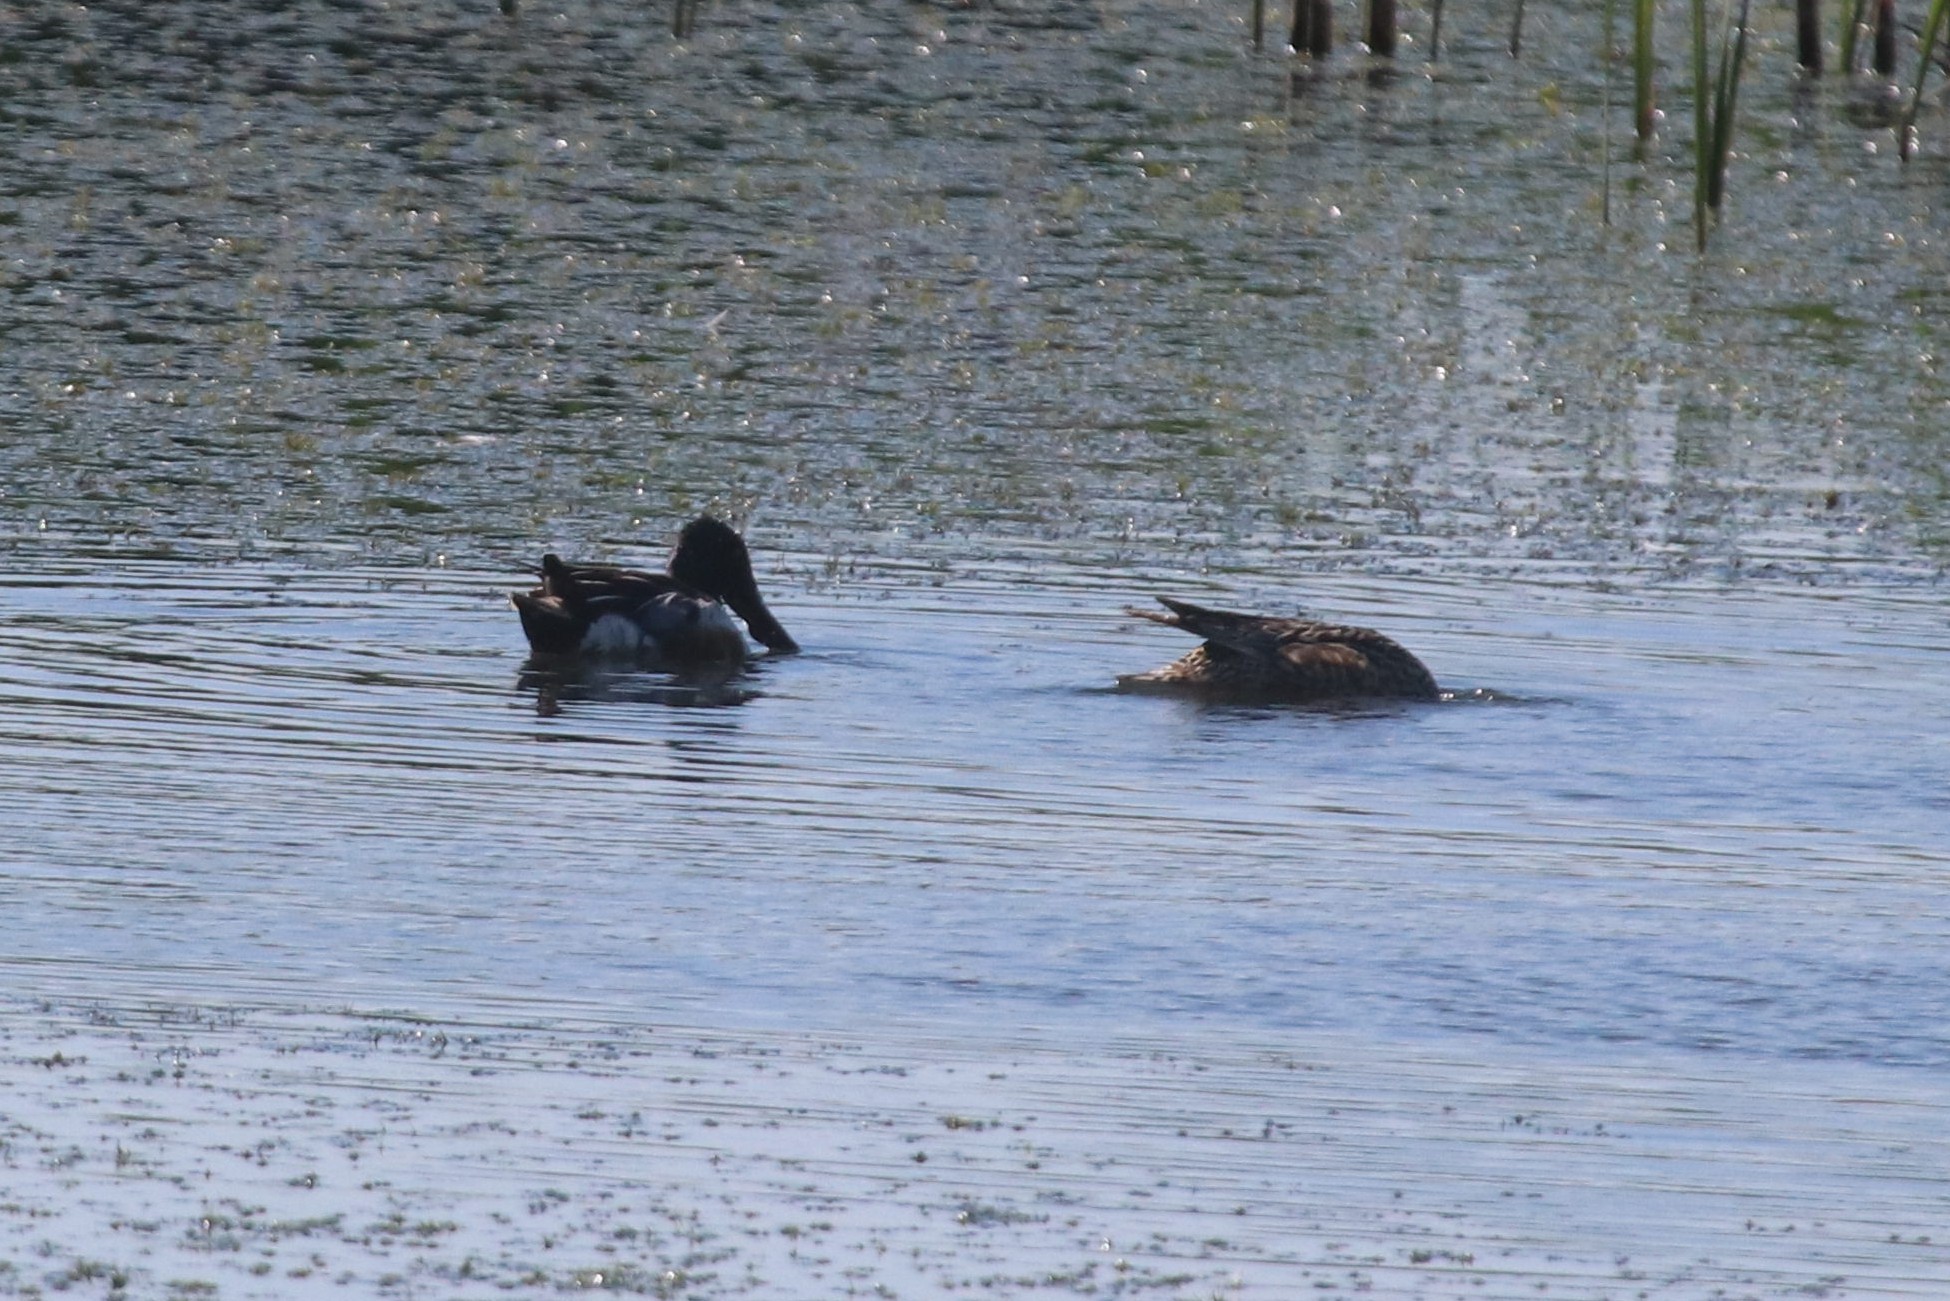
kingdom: Animalia
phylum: Chordata
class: Aves
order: Anseriformes
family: Anatidae
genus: Spatula
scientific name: Spatula clypeata
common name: Northern shoveler
